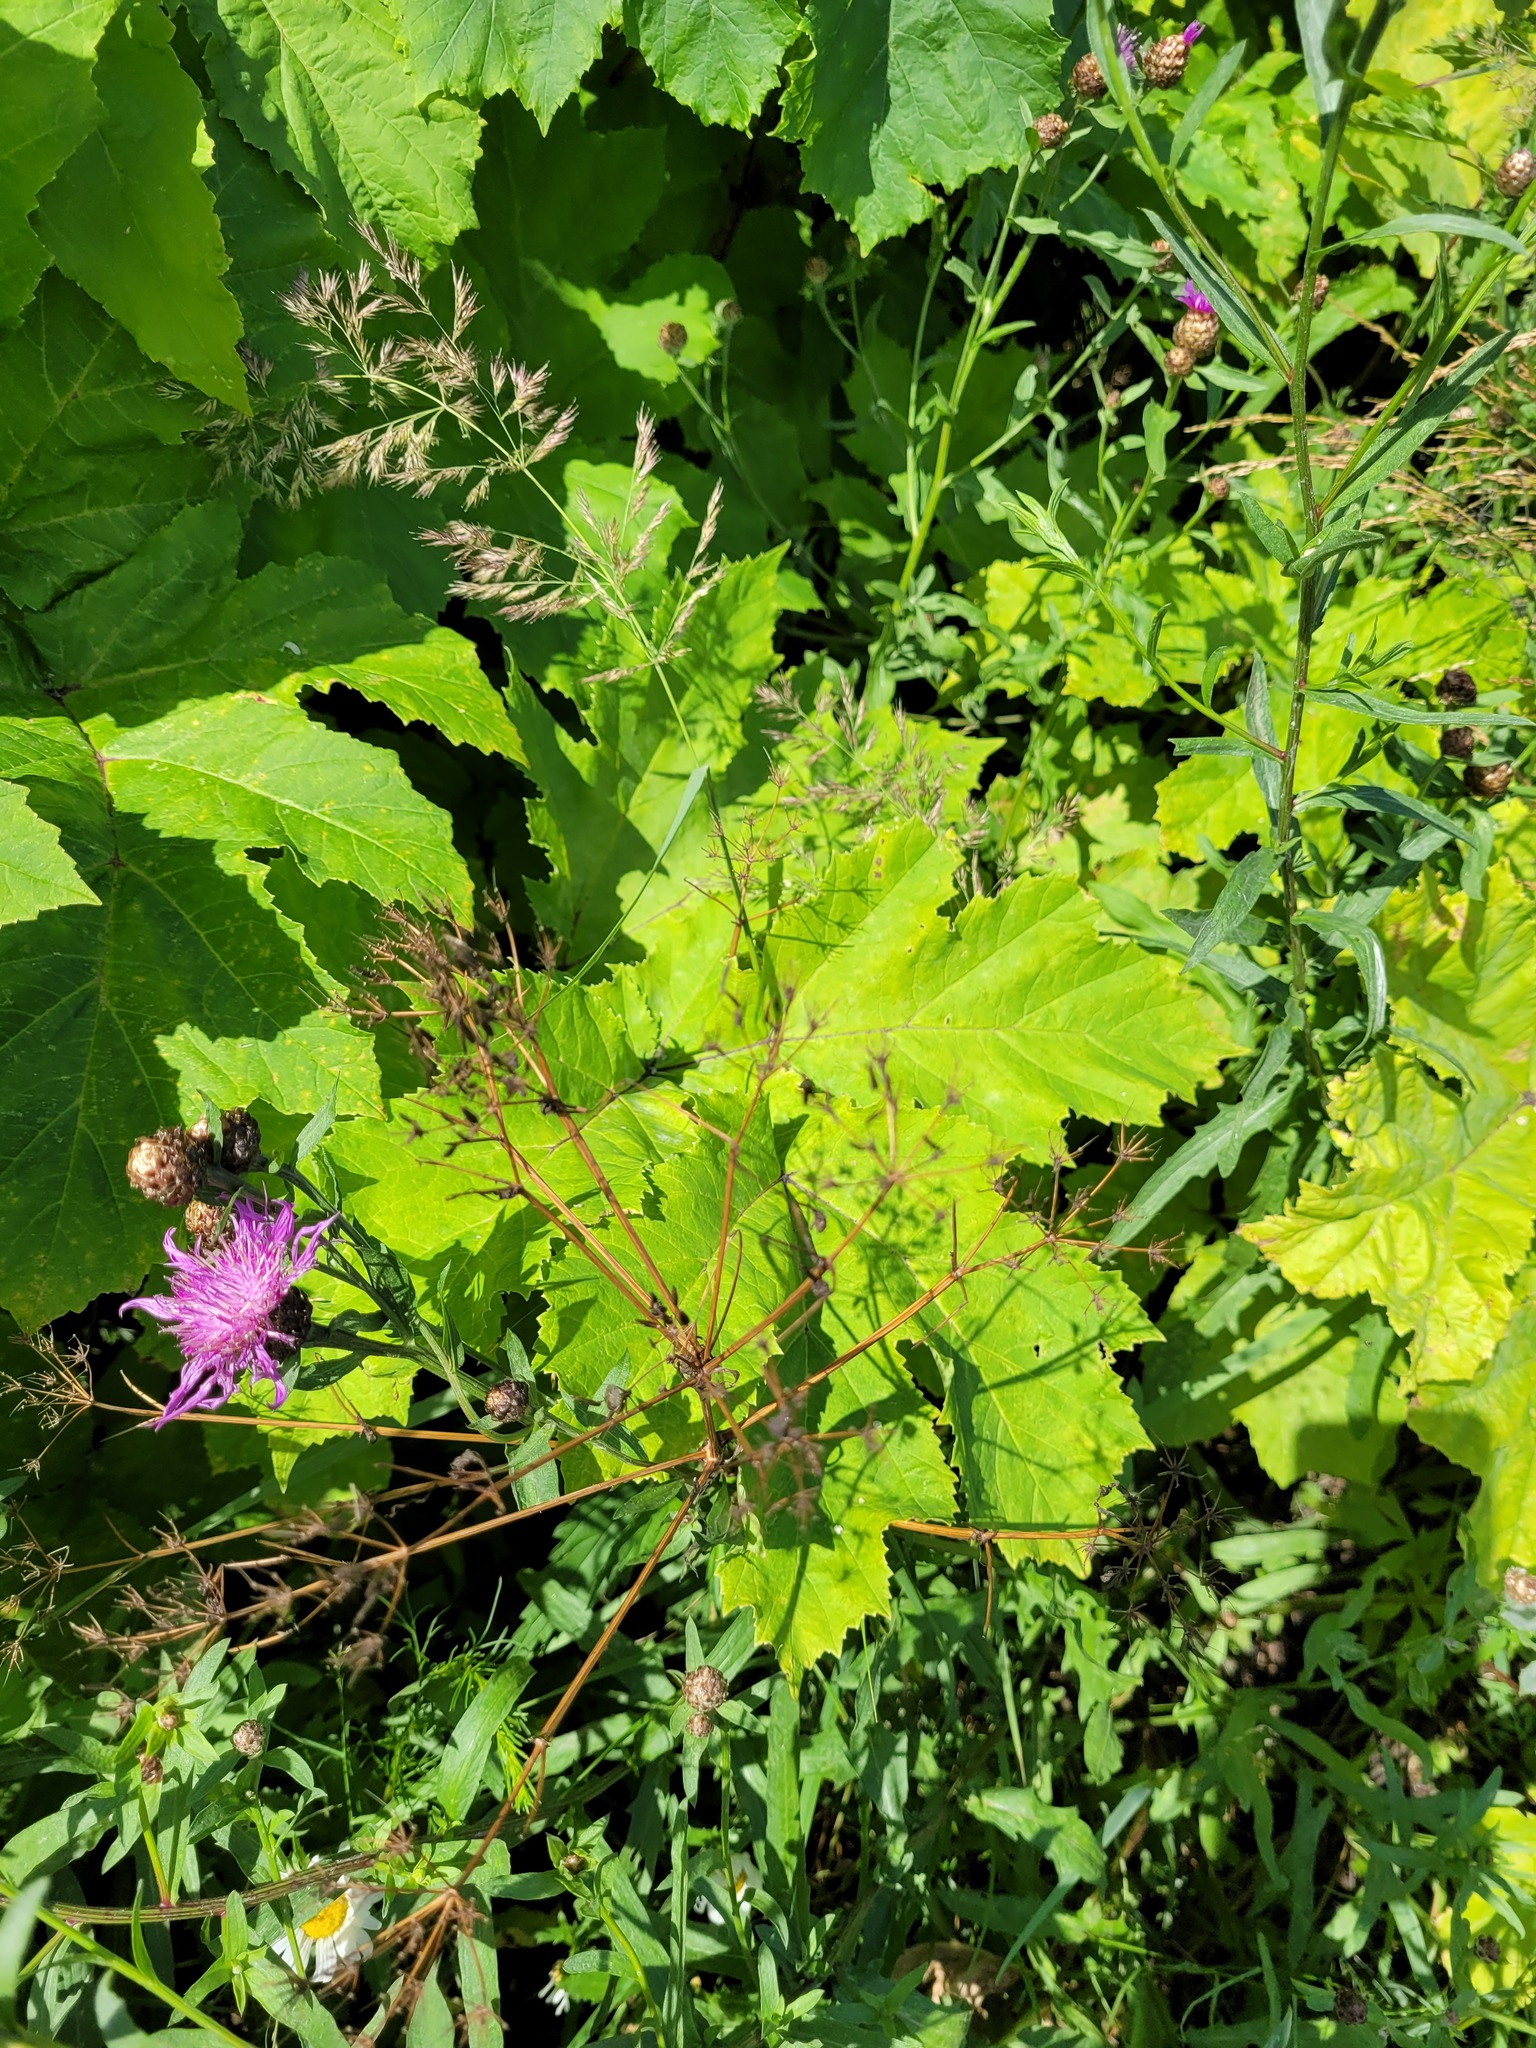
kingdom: Plantae
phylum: Tracheophyta
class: Magnoliopsida
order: Apiales
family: Apiaceae
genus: Anthriscus
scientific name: Anthriscus sylvestris
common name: Cow parsley
